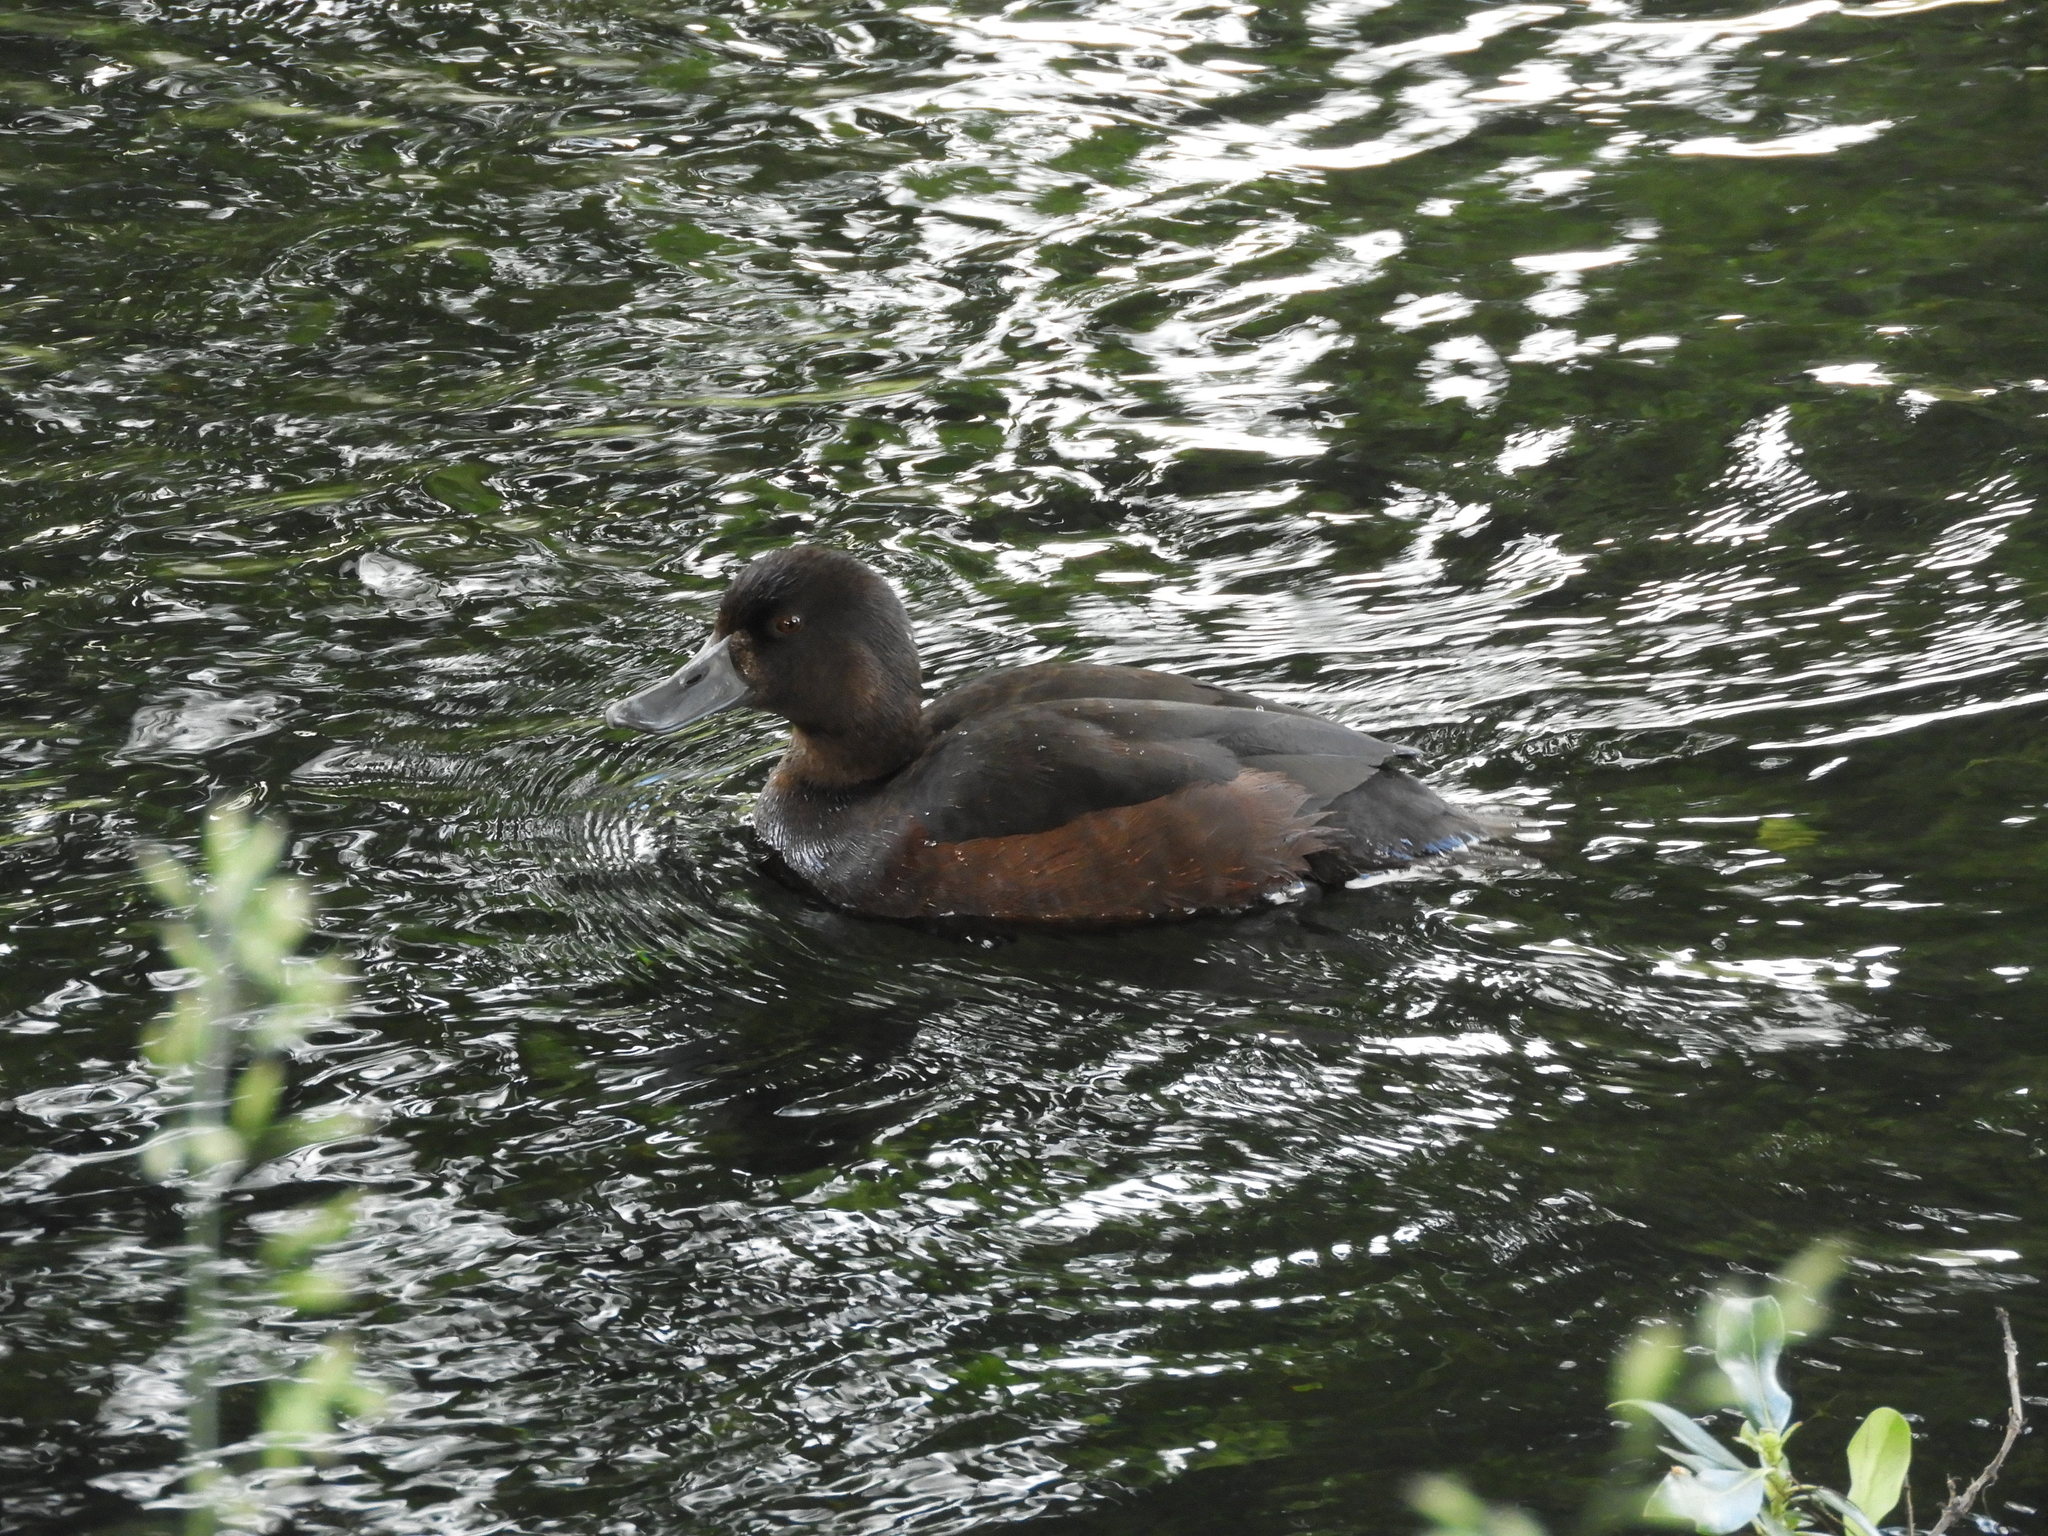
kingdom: Animalia
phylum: Chordata
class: Aves
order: Anseriformes
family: Anatidae
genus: Aythya
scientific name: Aythya novaeseelandiae
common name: New zealand scaup
